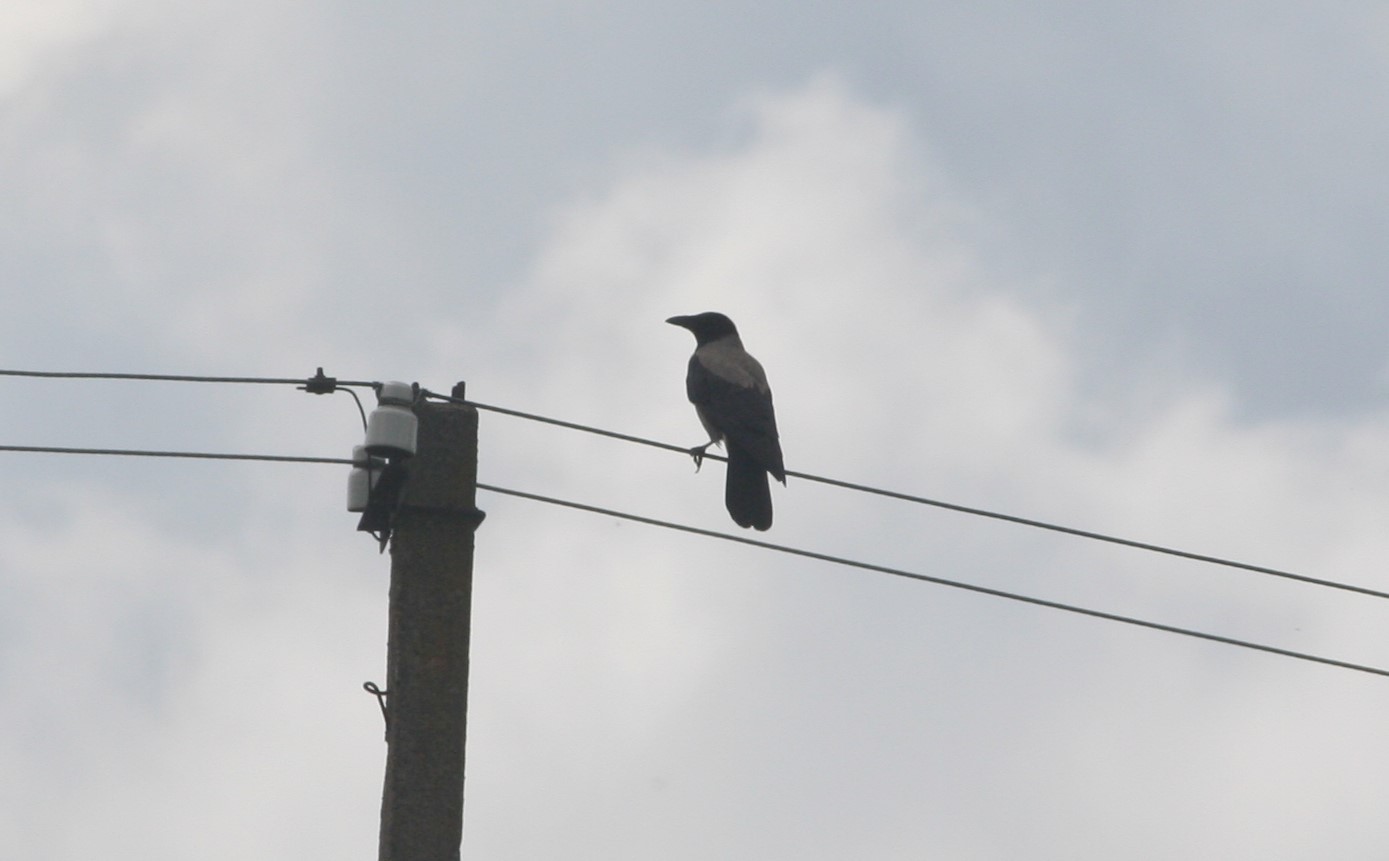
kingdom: Animalia
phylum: Chordata
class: Aves
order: Passeriformes
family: Corvidae
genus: Corvus
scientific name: Corvus cornix
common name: Hooded crow
